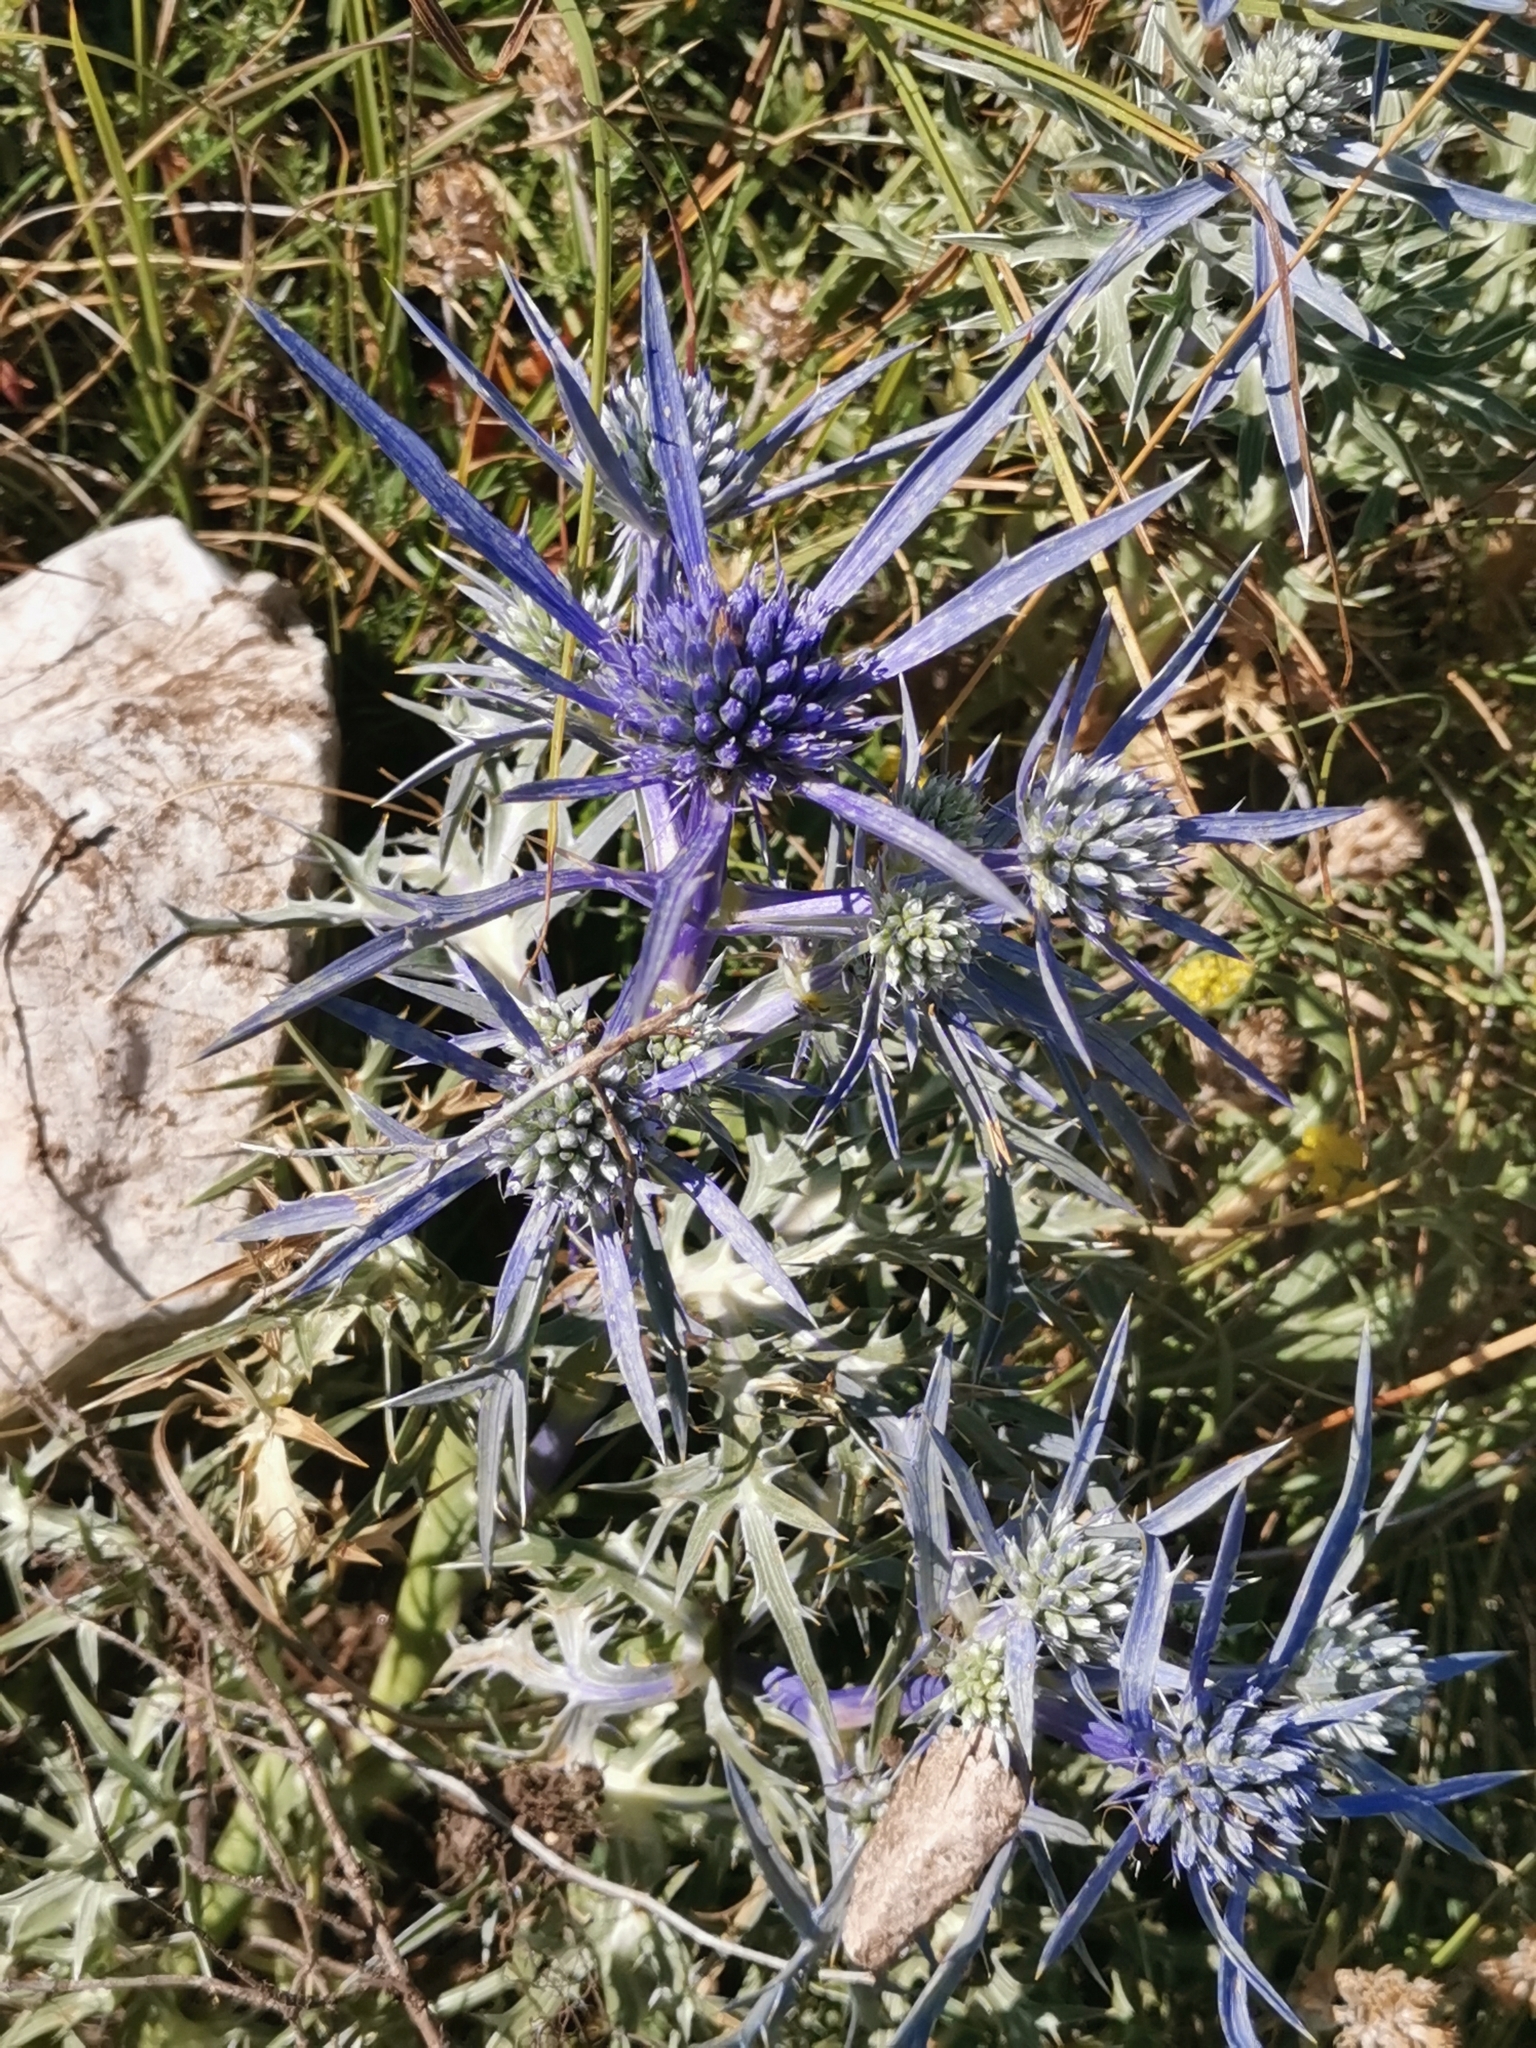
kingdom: Plantae
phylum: Tracheophyta
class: Magnoliopsida
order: Apiales
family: Apiaceae
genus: Eryngium
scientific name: Eryngium amethystinum
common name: Amethyst eryngo
